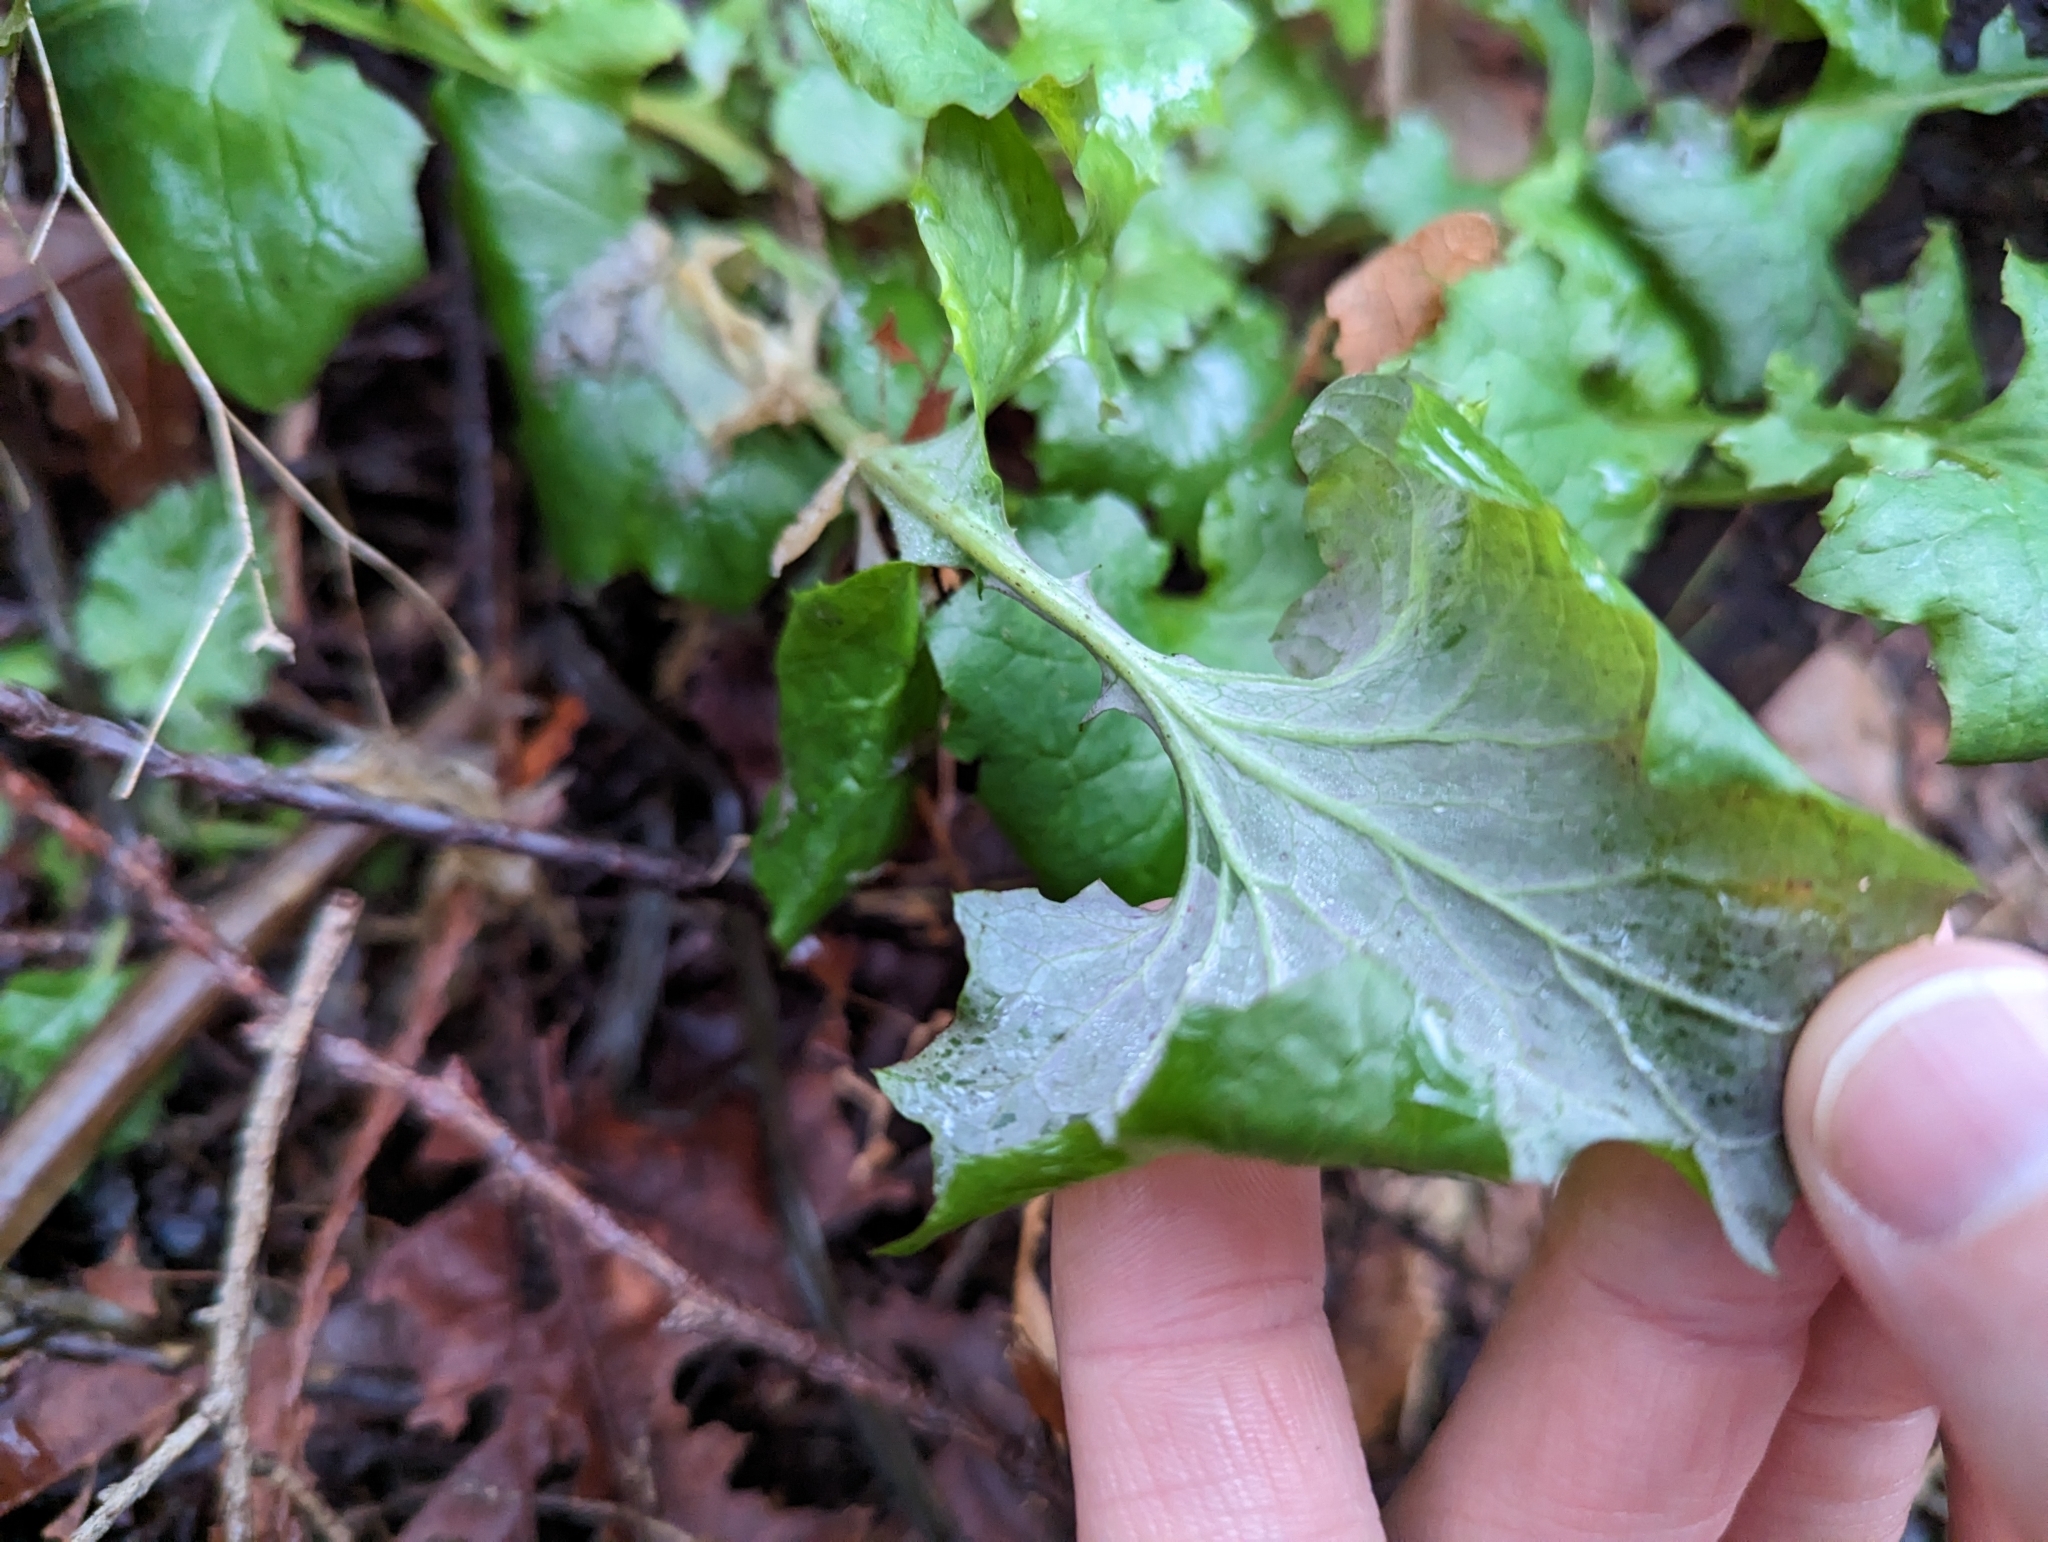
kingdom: Plantae
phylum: Tracheophyta
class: Magnoliopsida
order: Asterales
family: Asteraceae
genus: Mycelis
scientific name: Mycelis muralis
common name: Wall lettuce
